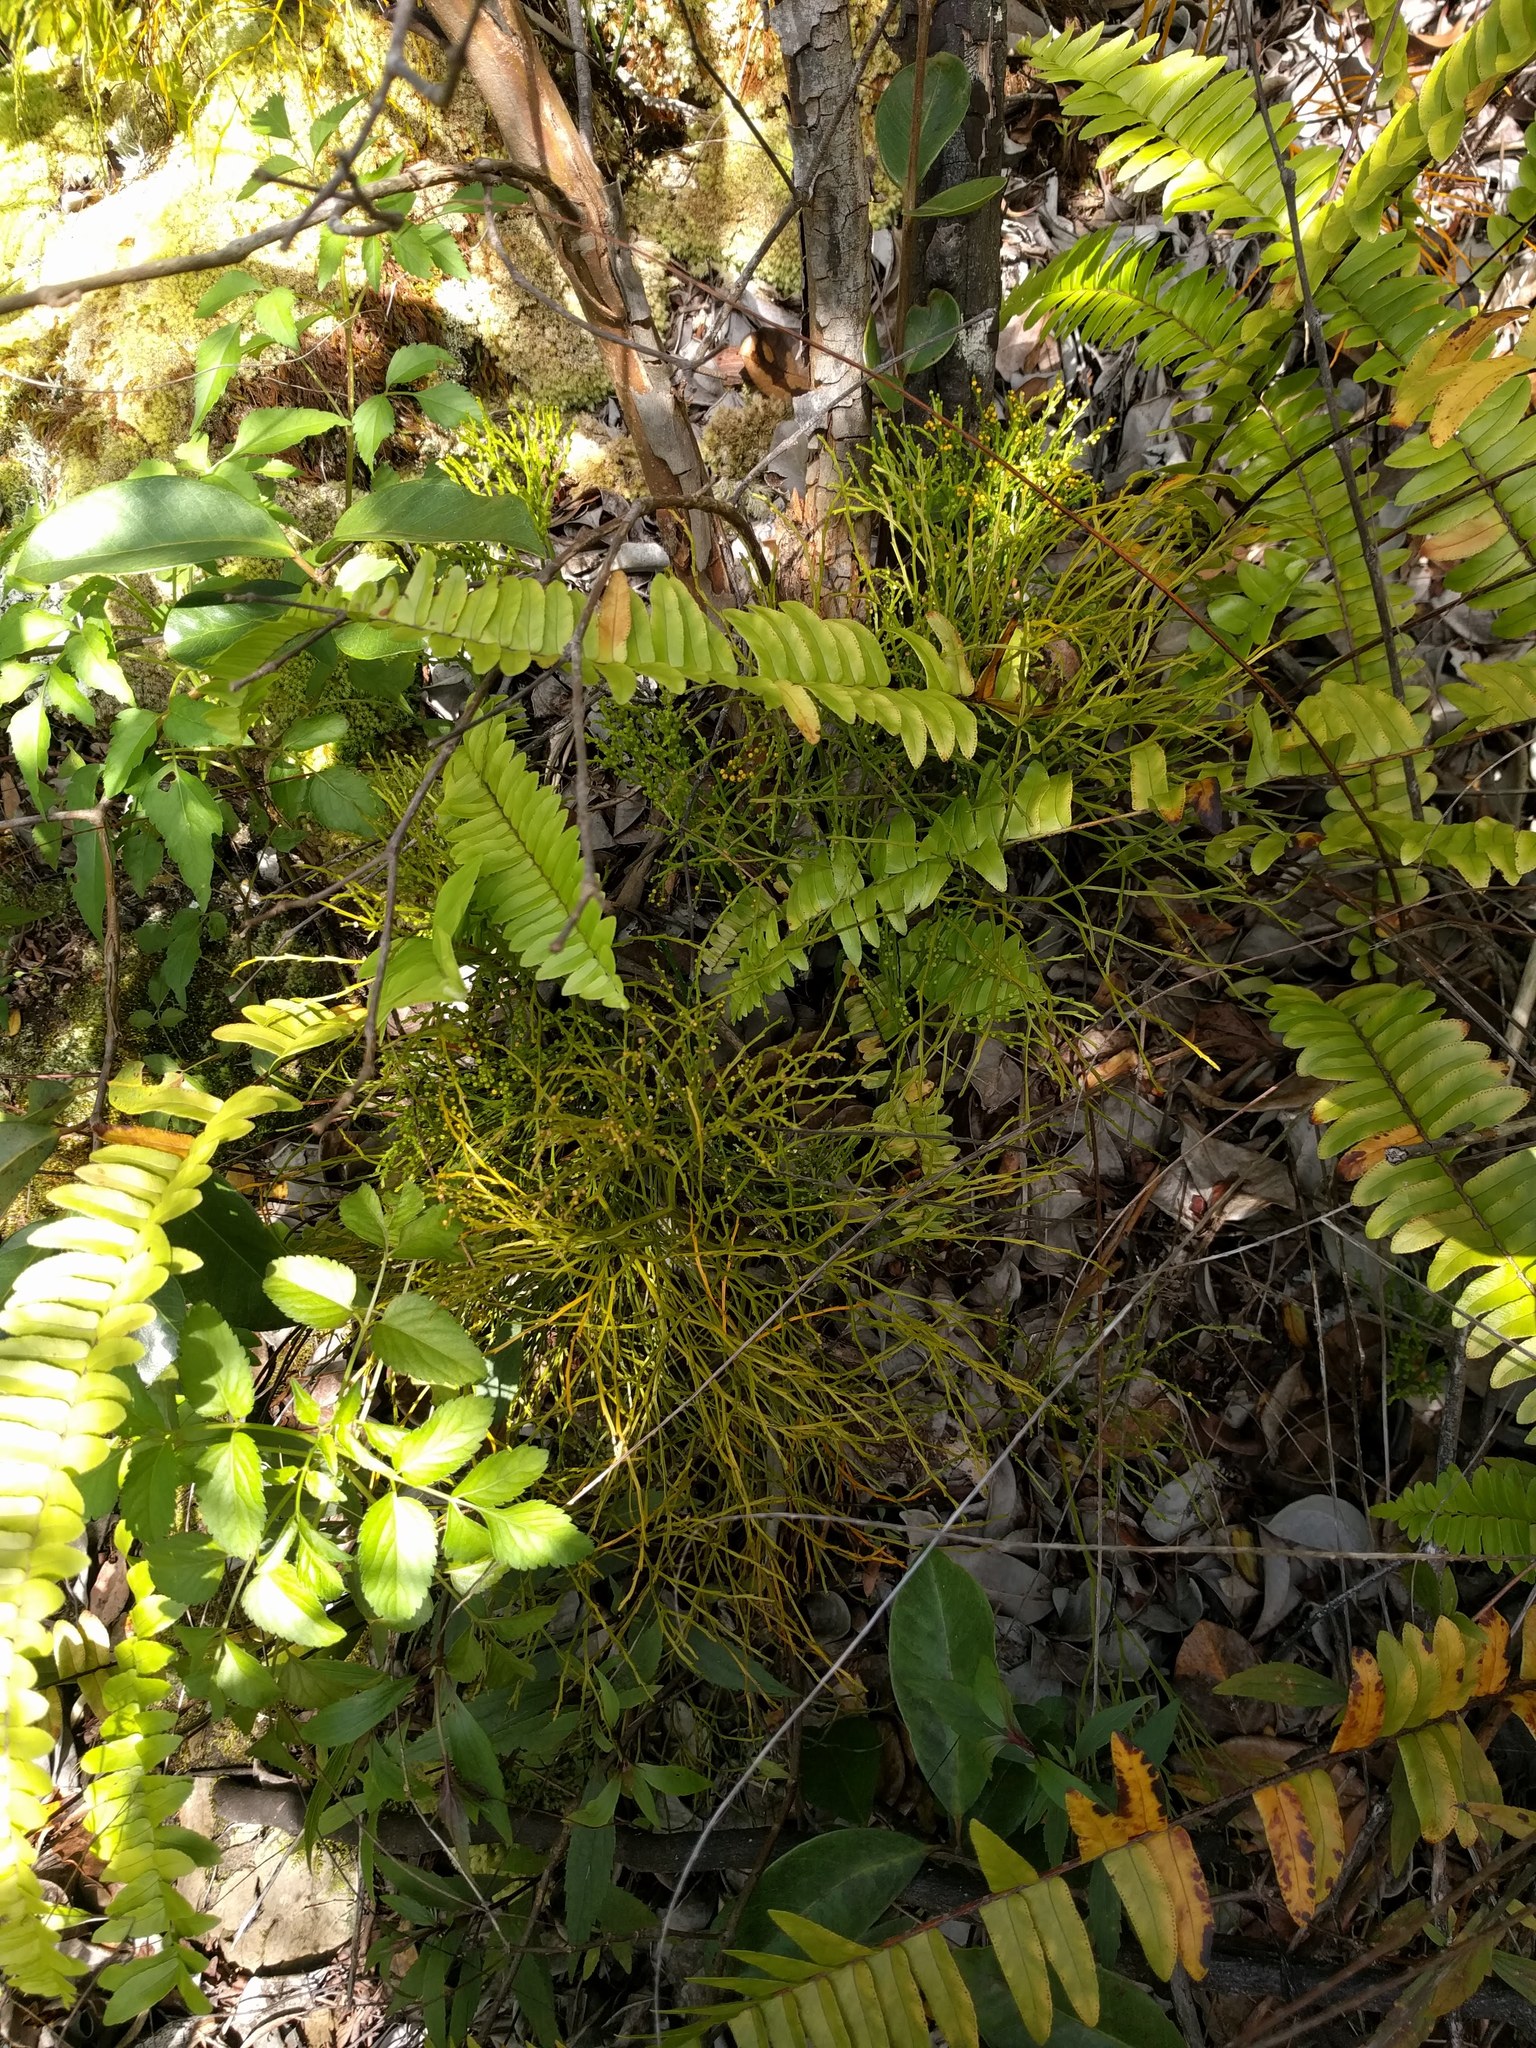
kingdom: Plantae
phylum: Tracheophyta
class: Polypodiopsida
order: Psilotales
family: Psilotaceae
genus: Psilotum
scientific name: Psilotum nudum
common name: Skeleton fork fern
